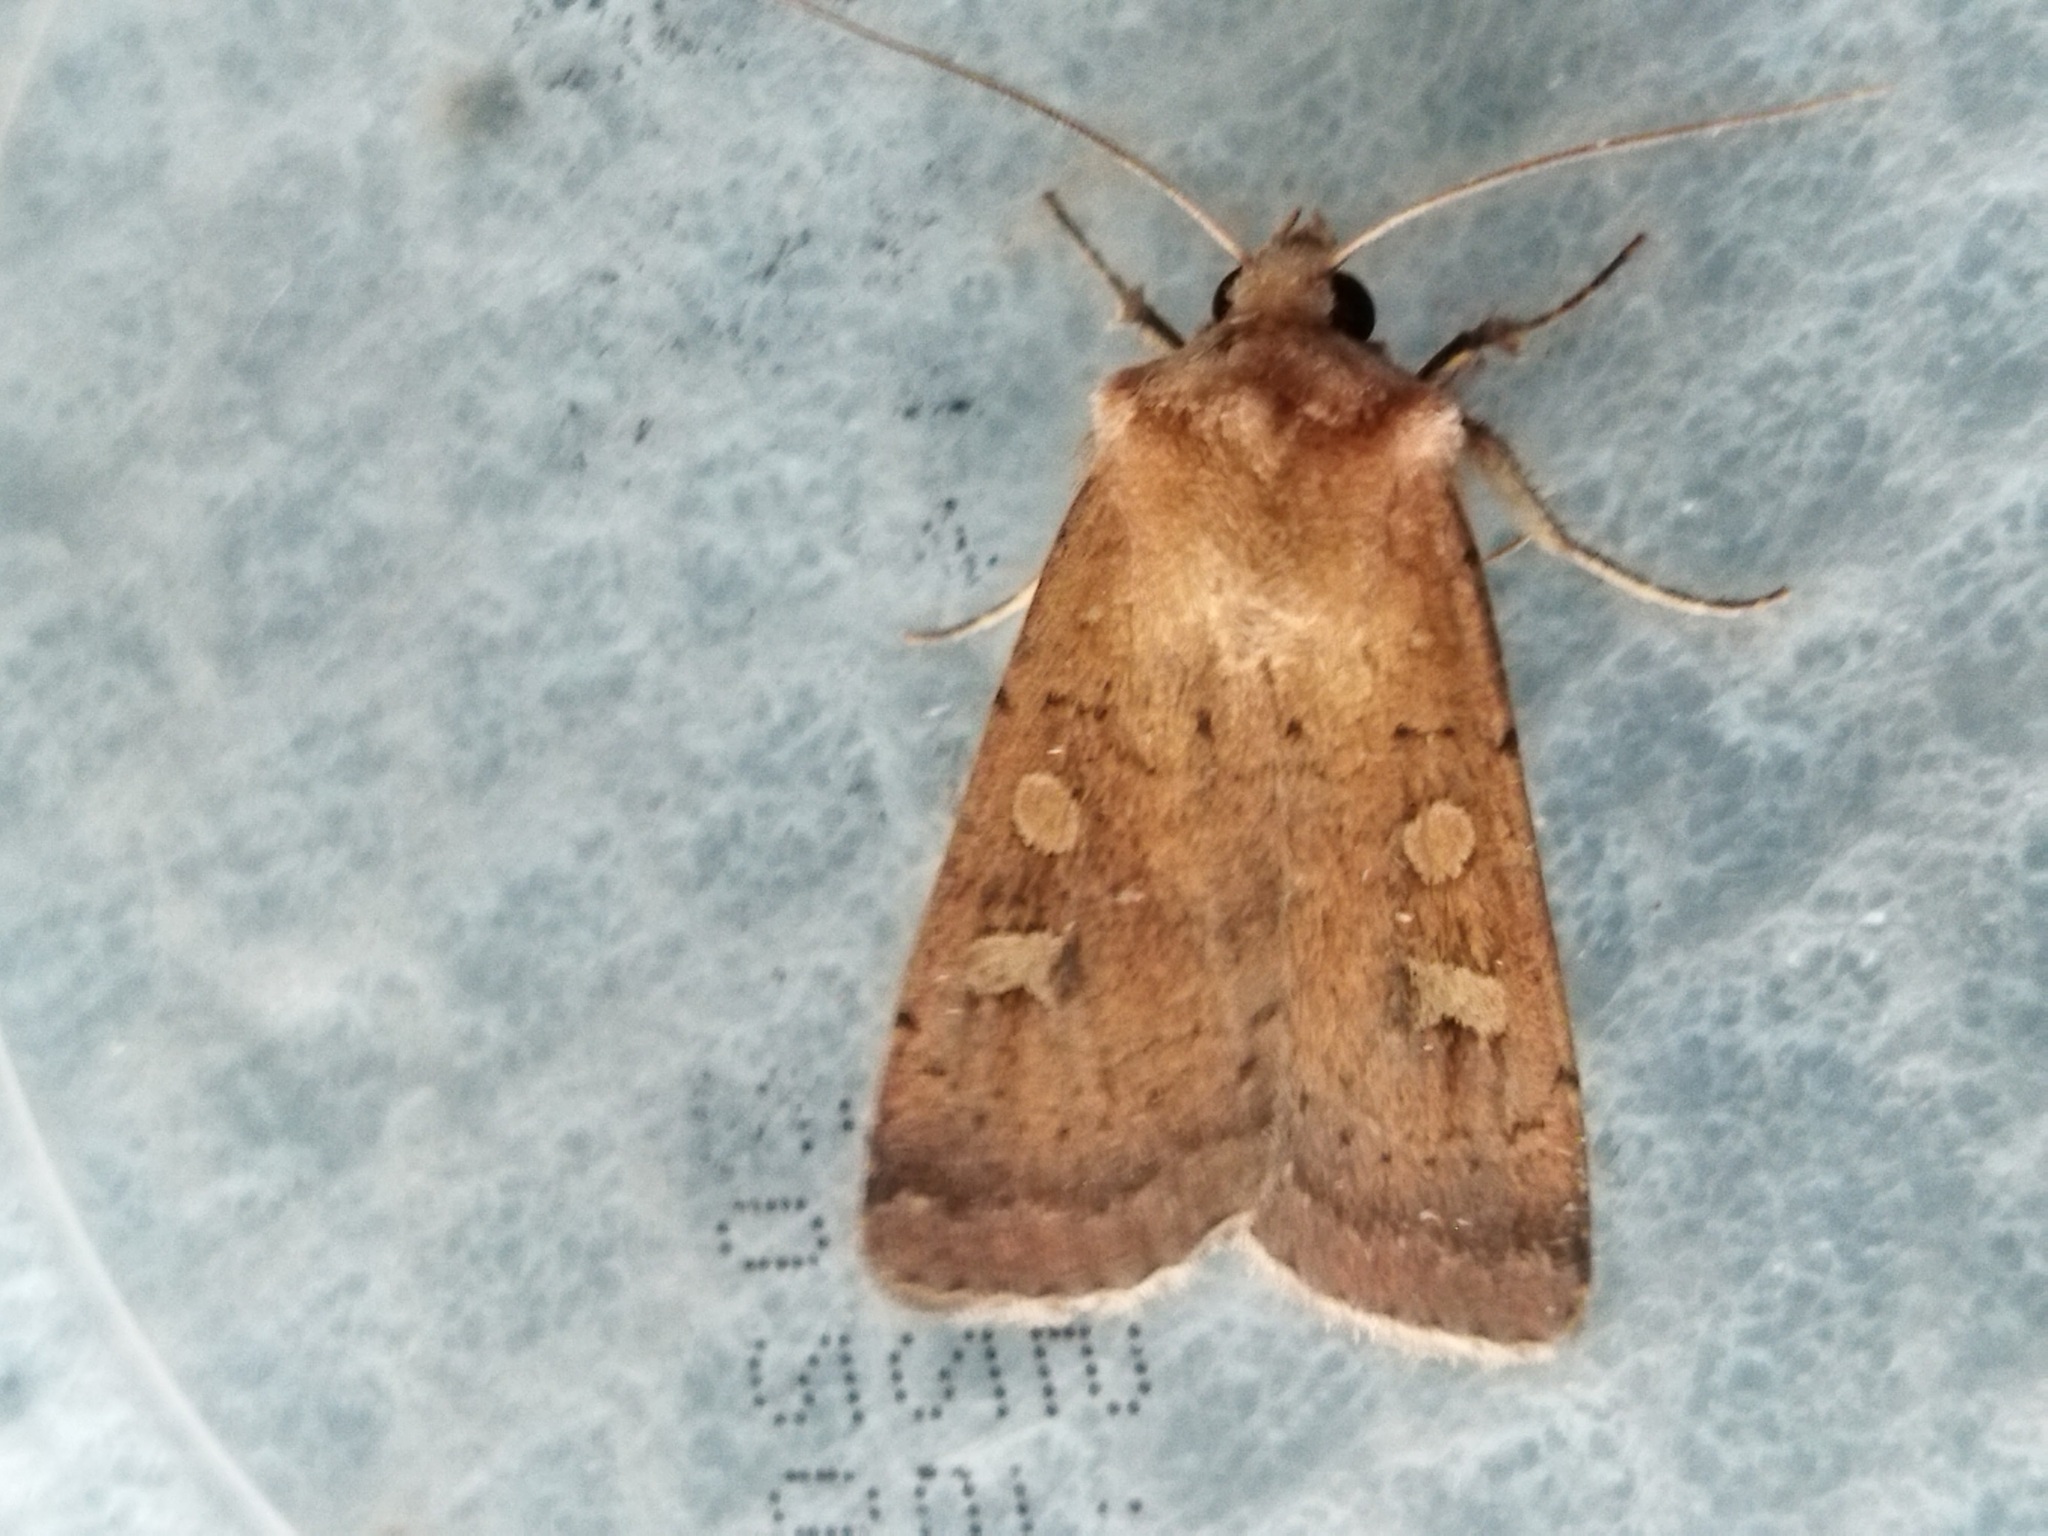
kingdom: Animalia
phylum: Arthropoda
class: Insecta
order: Lepidoptera
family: Noctuidae
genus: Xestia
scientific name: Xestia xanthographa
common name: Square-spot rustic
